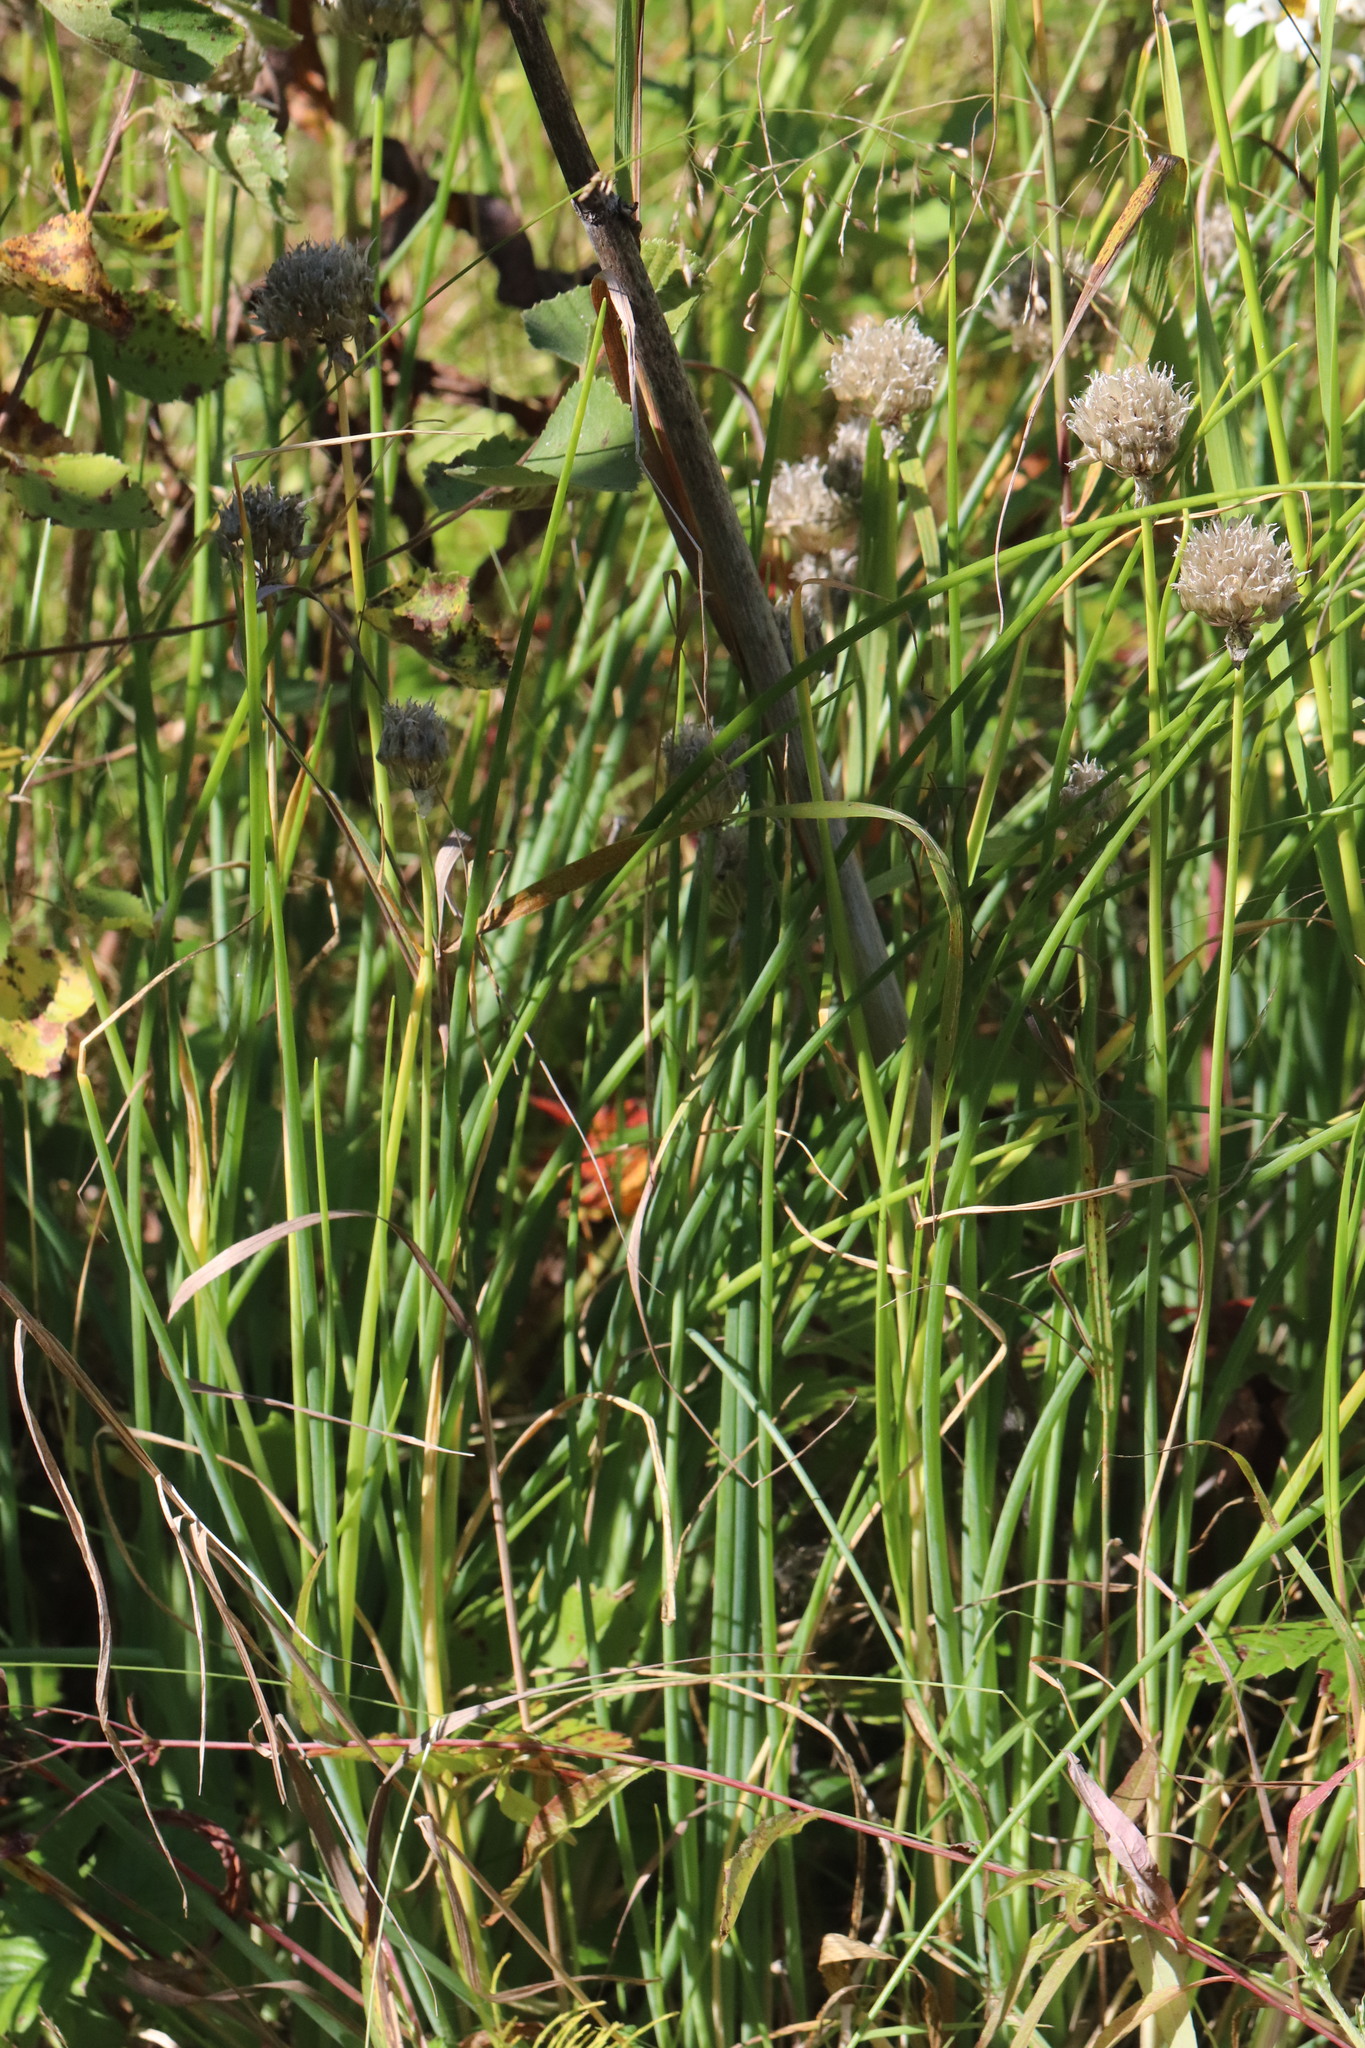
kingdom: Plantae
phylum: Tracheophyta
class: Liliopsida
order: Asparagales
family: Amaryllidaceae
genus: Allium
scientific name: Allium schoenoprasum
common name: Chives
